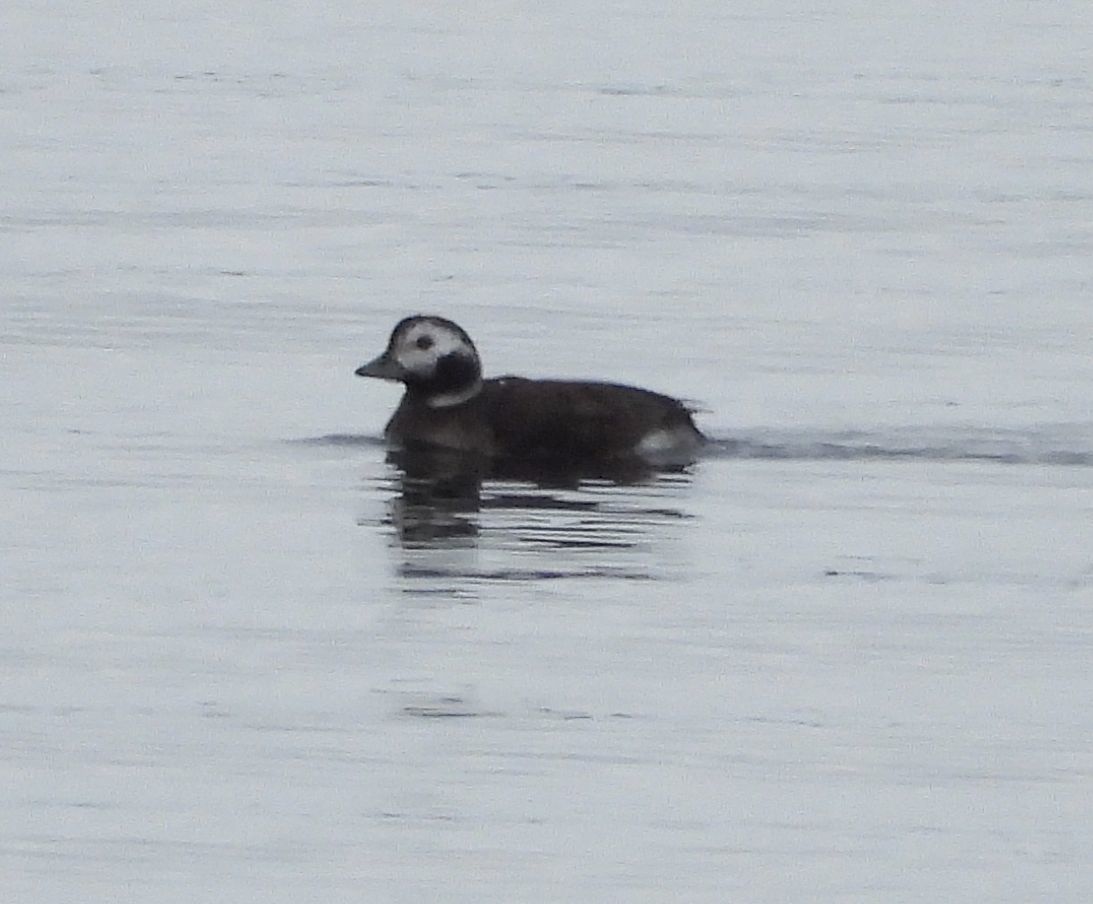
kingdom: Animalia
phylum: Chordata
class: Aves
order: Anseriformes
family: Anatidae
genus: Clangula
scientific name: Clangula hyemalis
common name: Long-tailed duck
